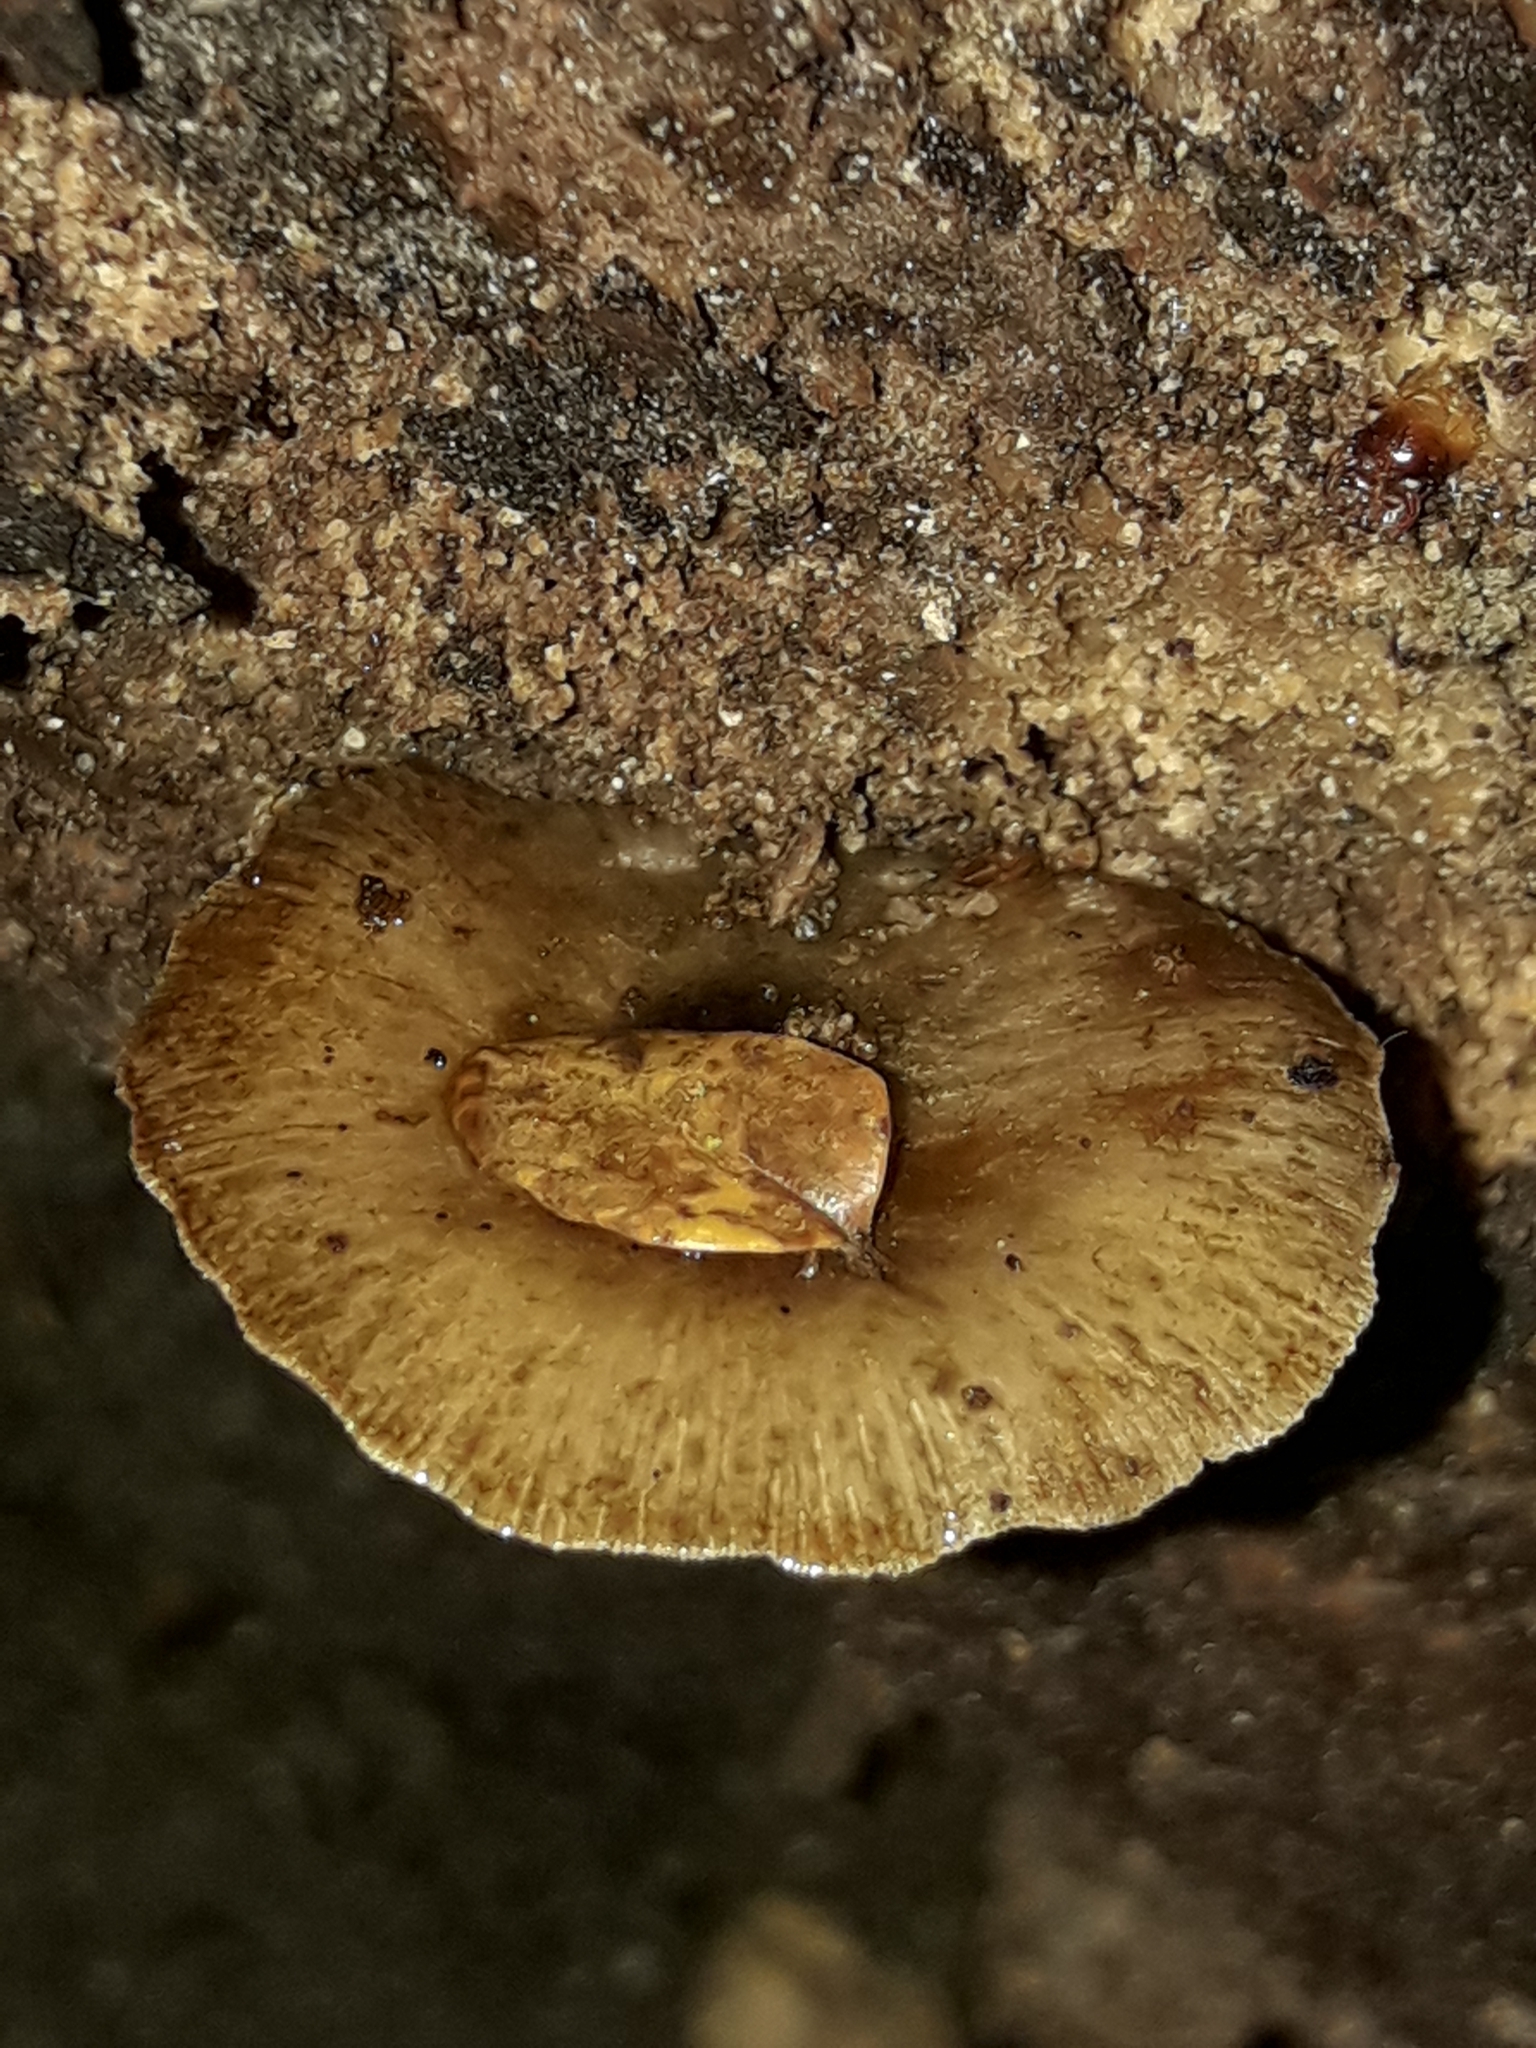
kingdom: Fungi
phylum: Basidiomycota
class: Agaricomycetes
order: Agaricales
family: Bolbitiaceae
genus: Bolbitius
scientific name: Bolbitius muscicola
